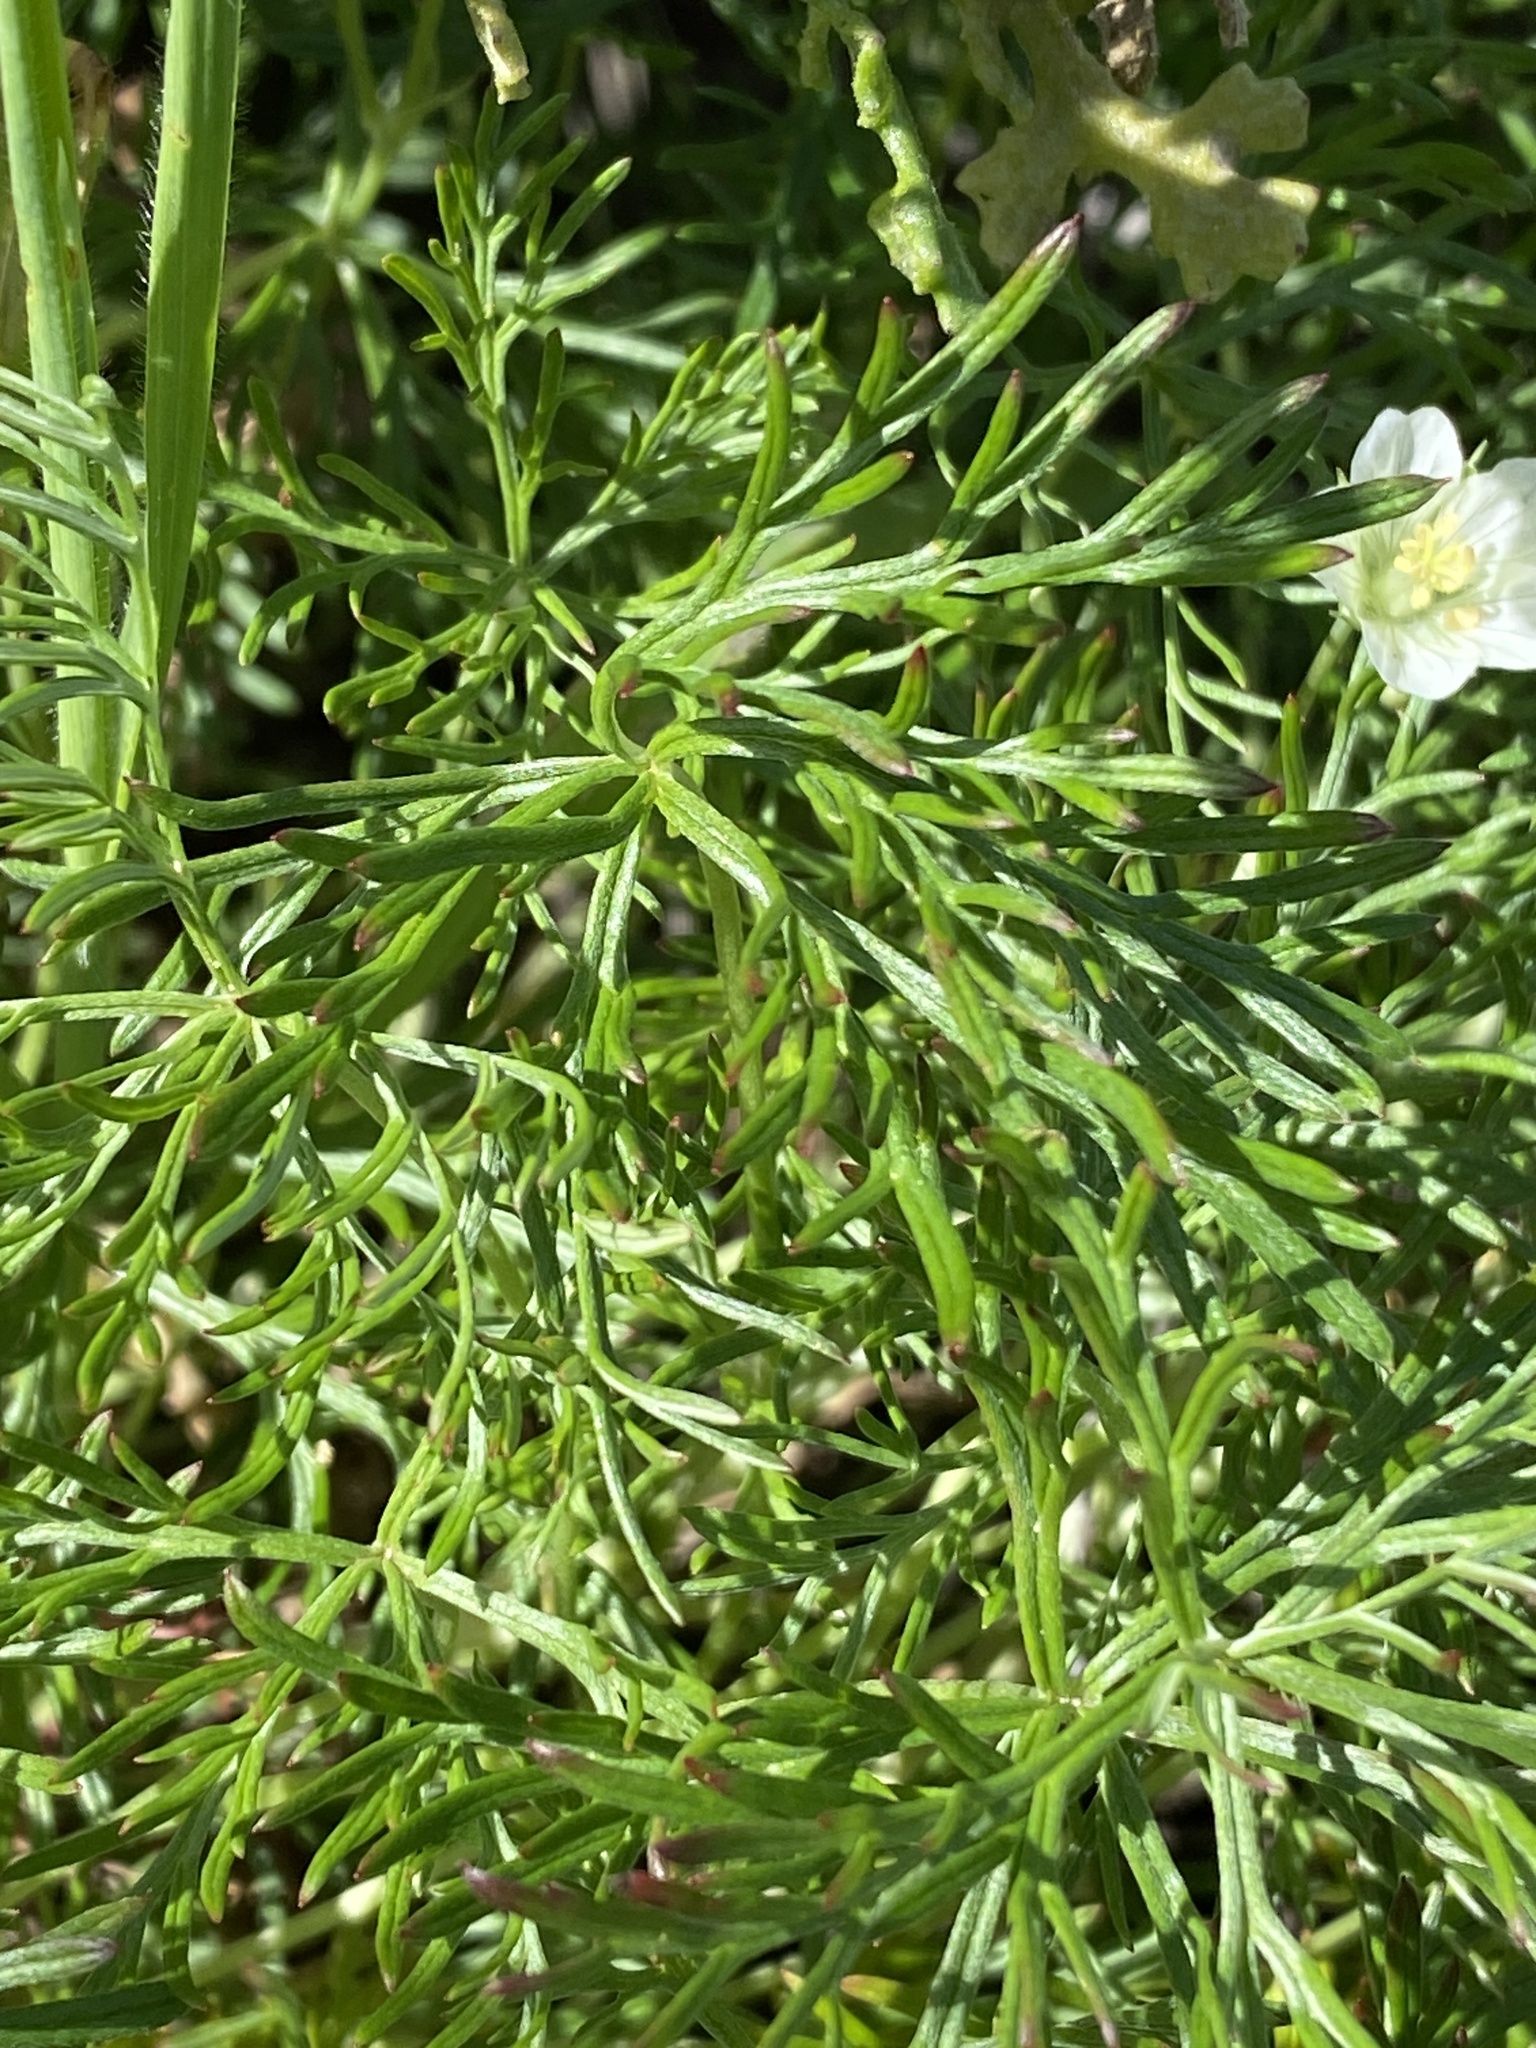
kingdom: Plantae
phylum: Tracheophyta
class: Magnoliopsida
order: Geraniales
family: Geraniaceae
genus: Geranium
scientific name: Geranium incanum
